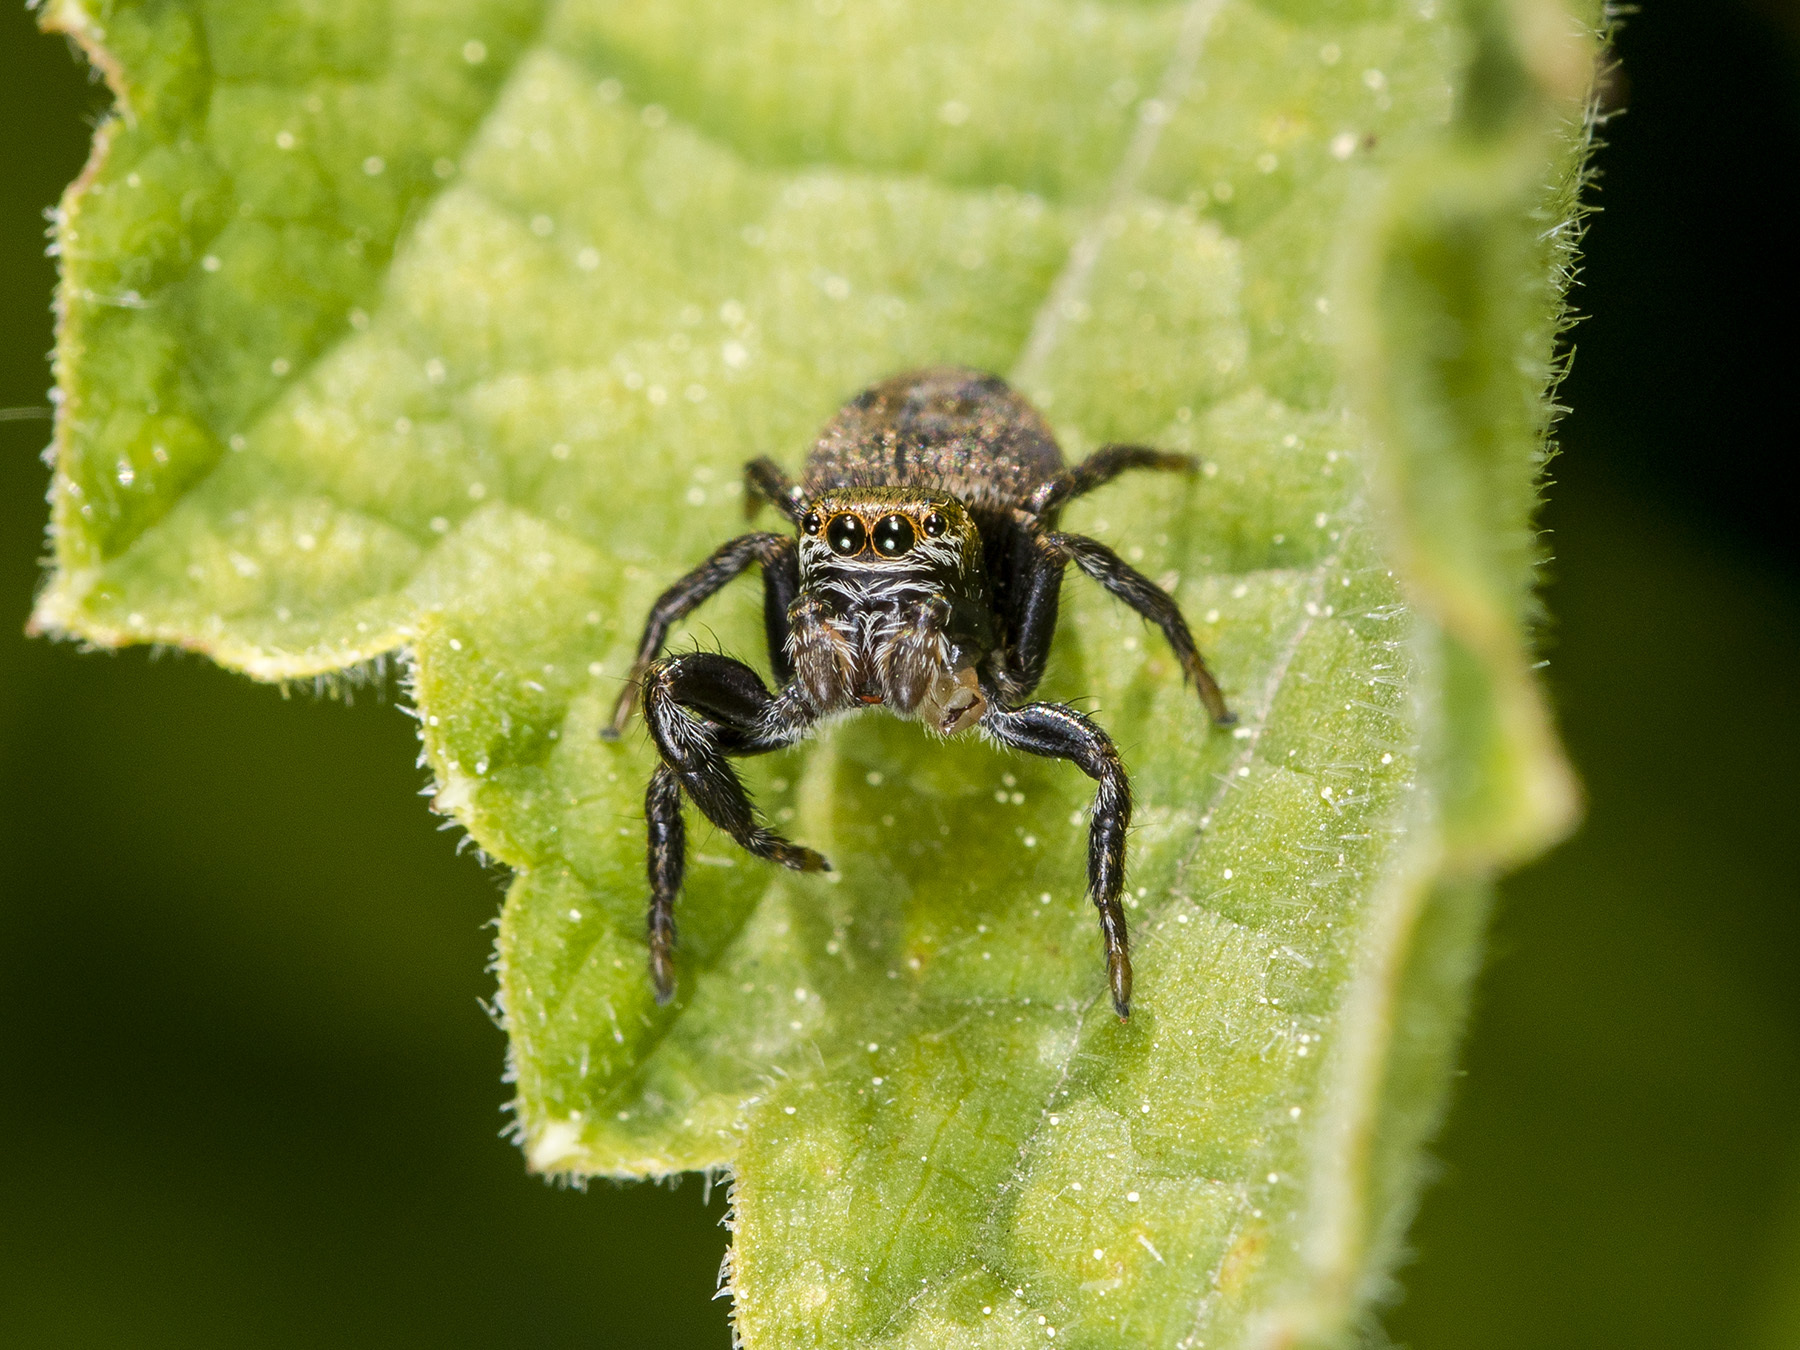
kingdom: Animalia
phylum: Arthropoda
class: Arachnida
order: Araneae
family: Salticidae
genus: Evarcha
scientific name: Evarcha arcuata
